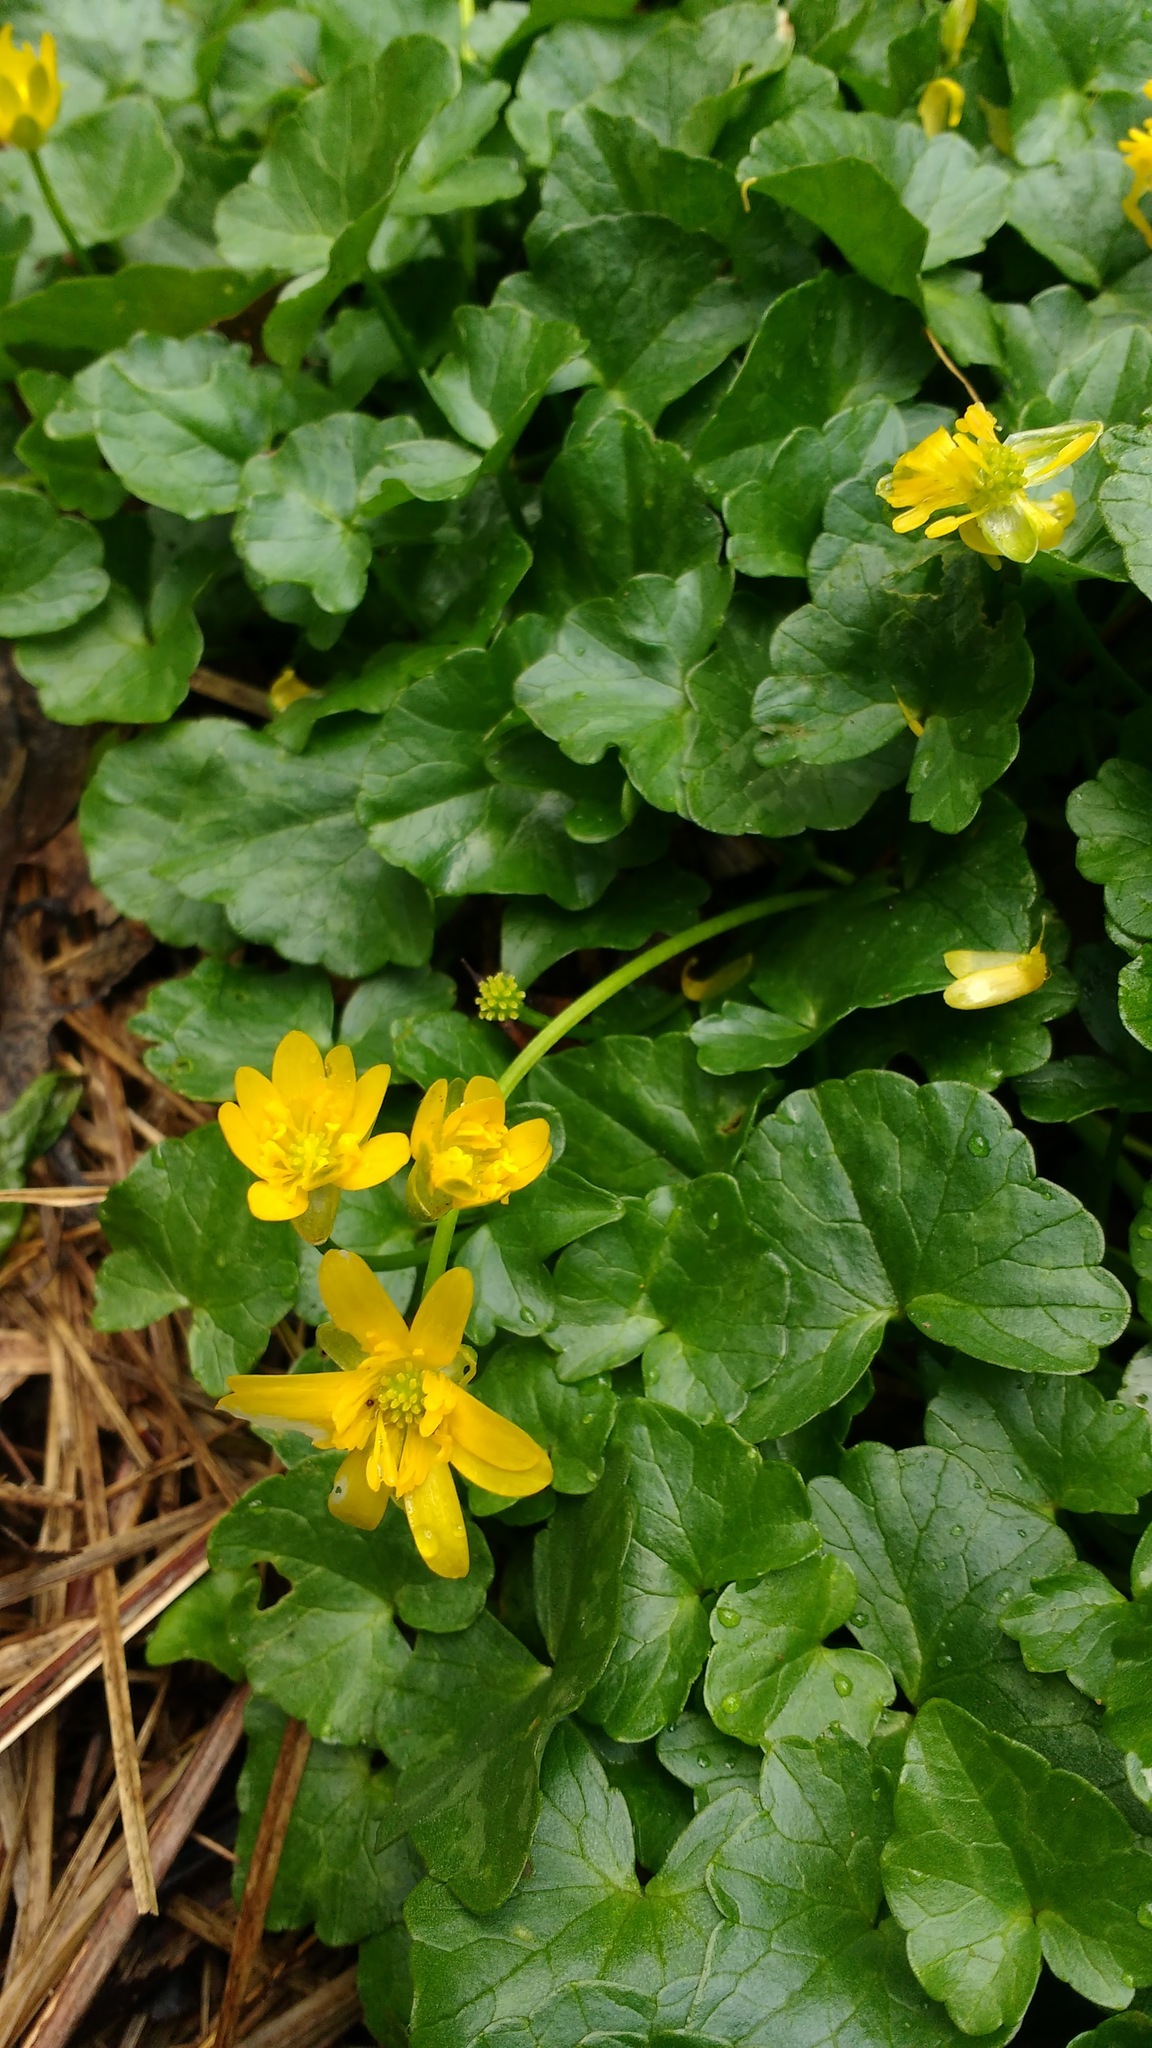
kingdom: Plantae
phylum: Tracheophyta
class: Magnoliopsida
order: Ranunculales
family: Ranunculaceae
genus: Ficaria
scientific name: Ficaria verna
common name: Lesser celandine
